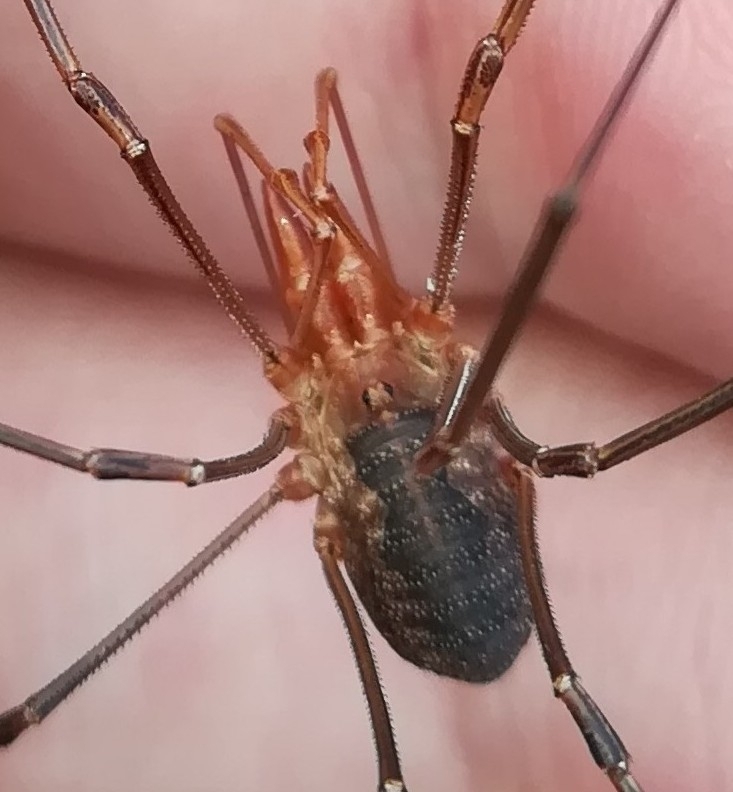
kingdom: Animalia
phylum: Arthropoda
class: Arachnida
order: Opiliones
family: Phalangiidae
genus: Phalangium
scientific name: Phalangium opilio
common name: Daddy longleg
